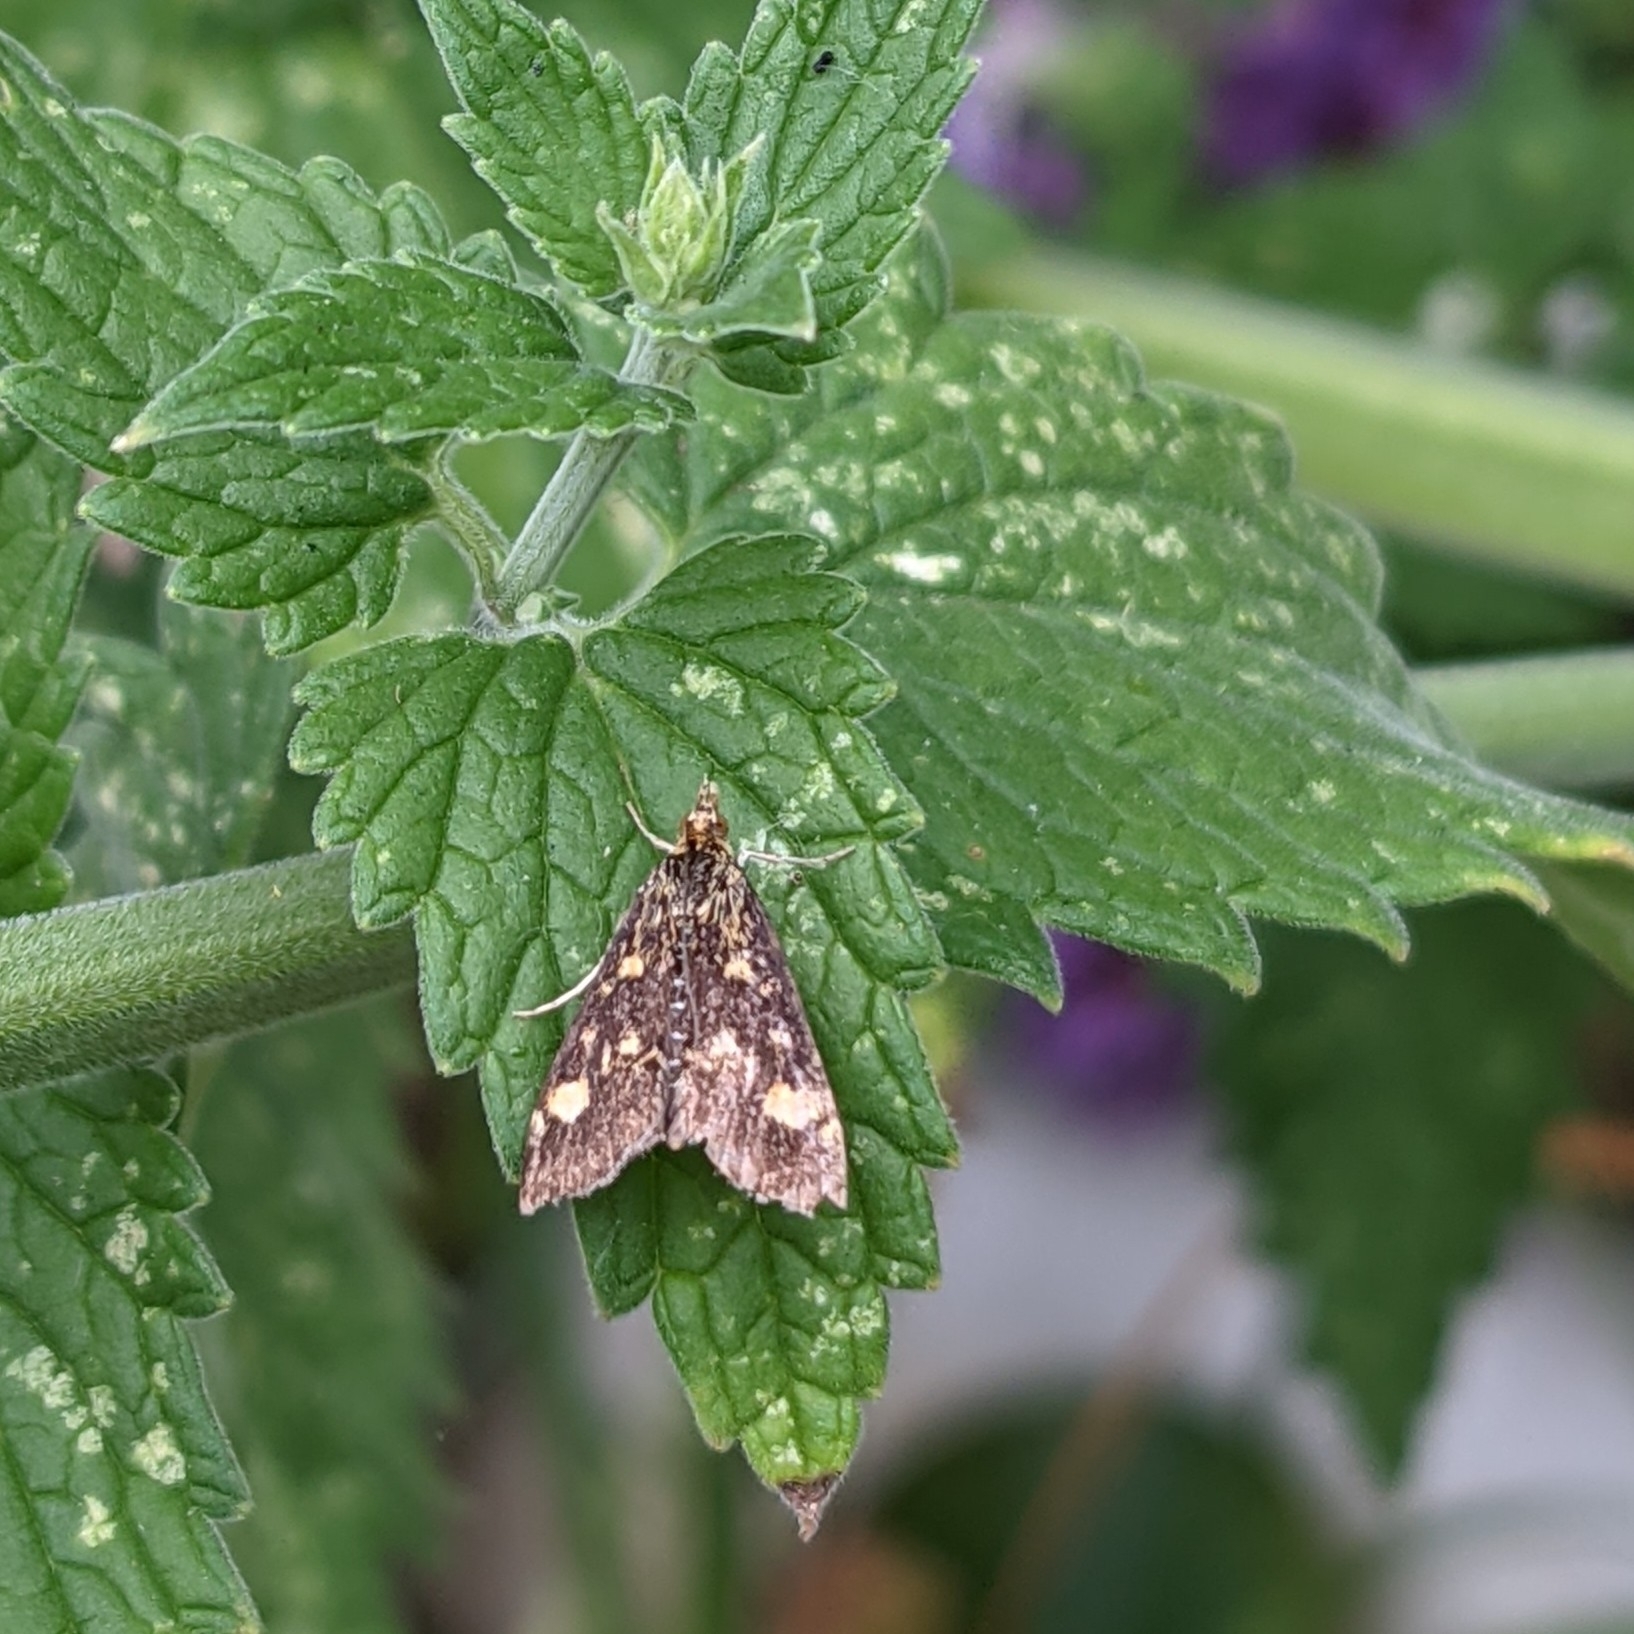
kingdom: Animalia
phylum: Arthropoda
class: Insecta
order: Lepidoptera
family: Crambidae
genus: Pyrausta
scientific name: Pyrausta aurata
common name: Small purple & gold
